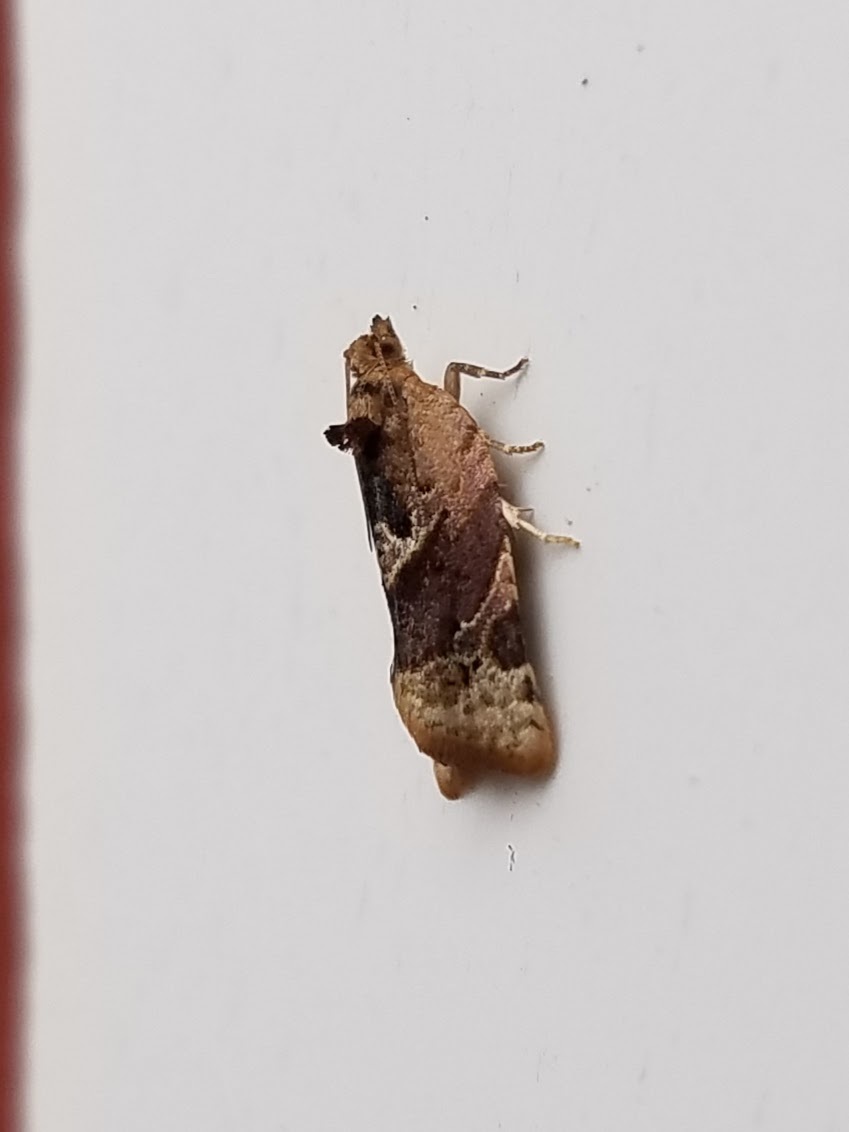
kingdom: Animalia
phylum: Arthropoda
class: Insecta
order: Lepidoptera
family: Tortricidae
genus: Argyrotaenia
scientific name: Argyrotaenia velutinana
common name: Red-banded leafroller moth
